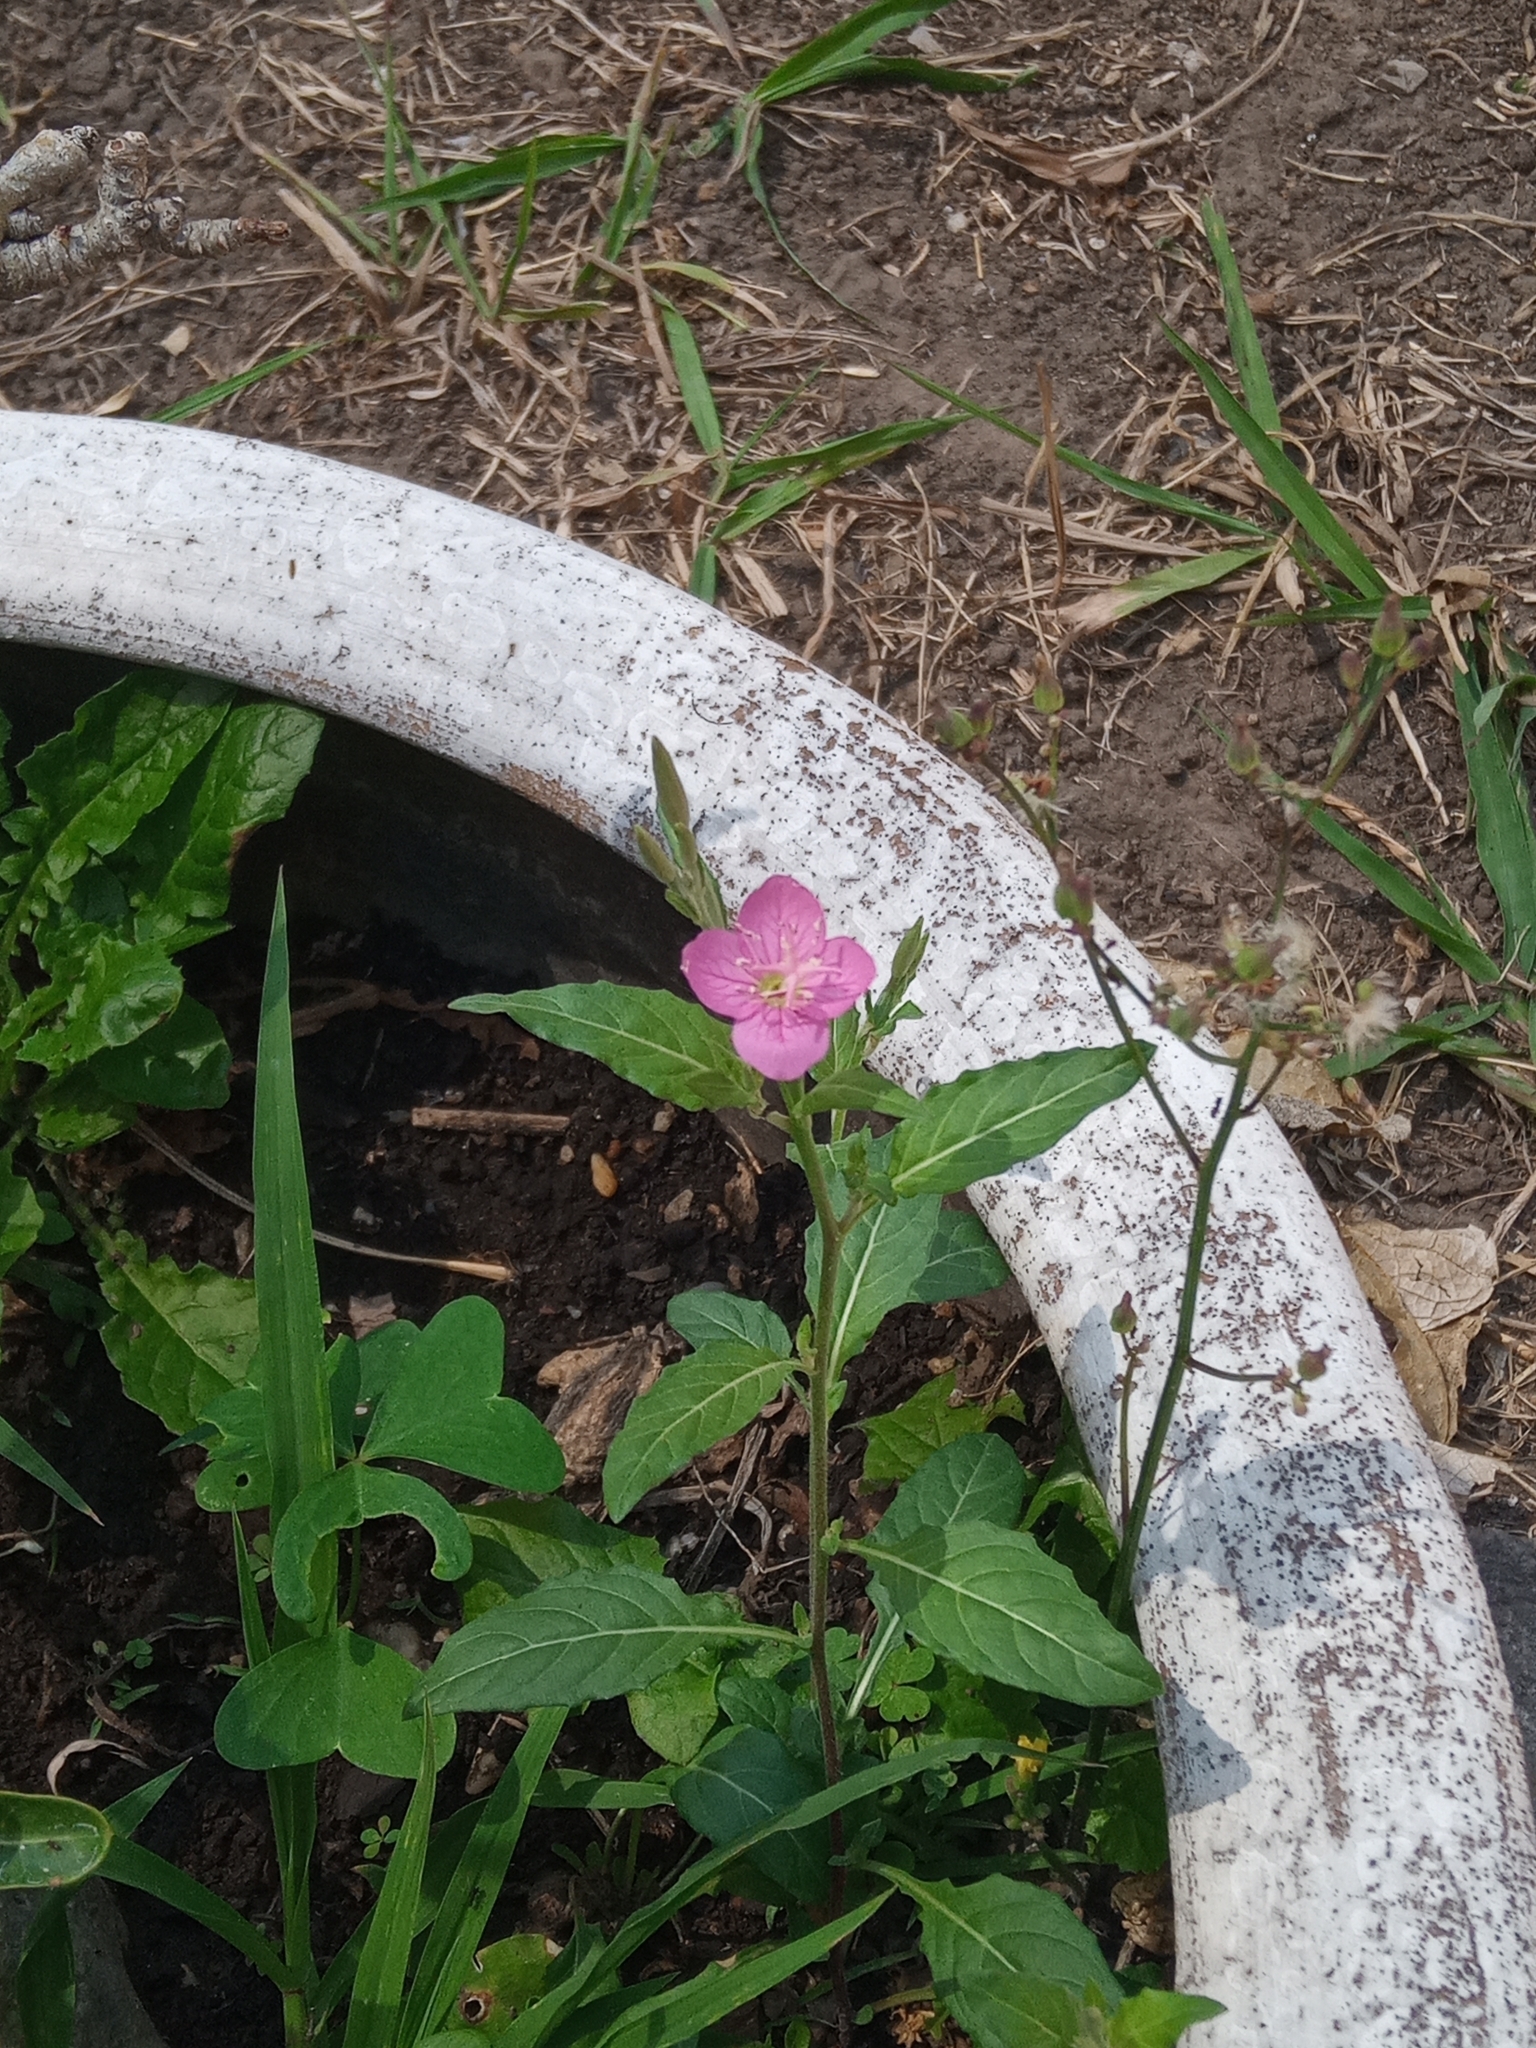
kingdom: Plantae
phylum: Tracheophyta
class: Magnoliopsida
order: Myrtales
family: Onagraceae
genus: Oenothera
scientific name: Oenothera rosea
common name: Rosy evening-primrose
